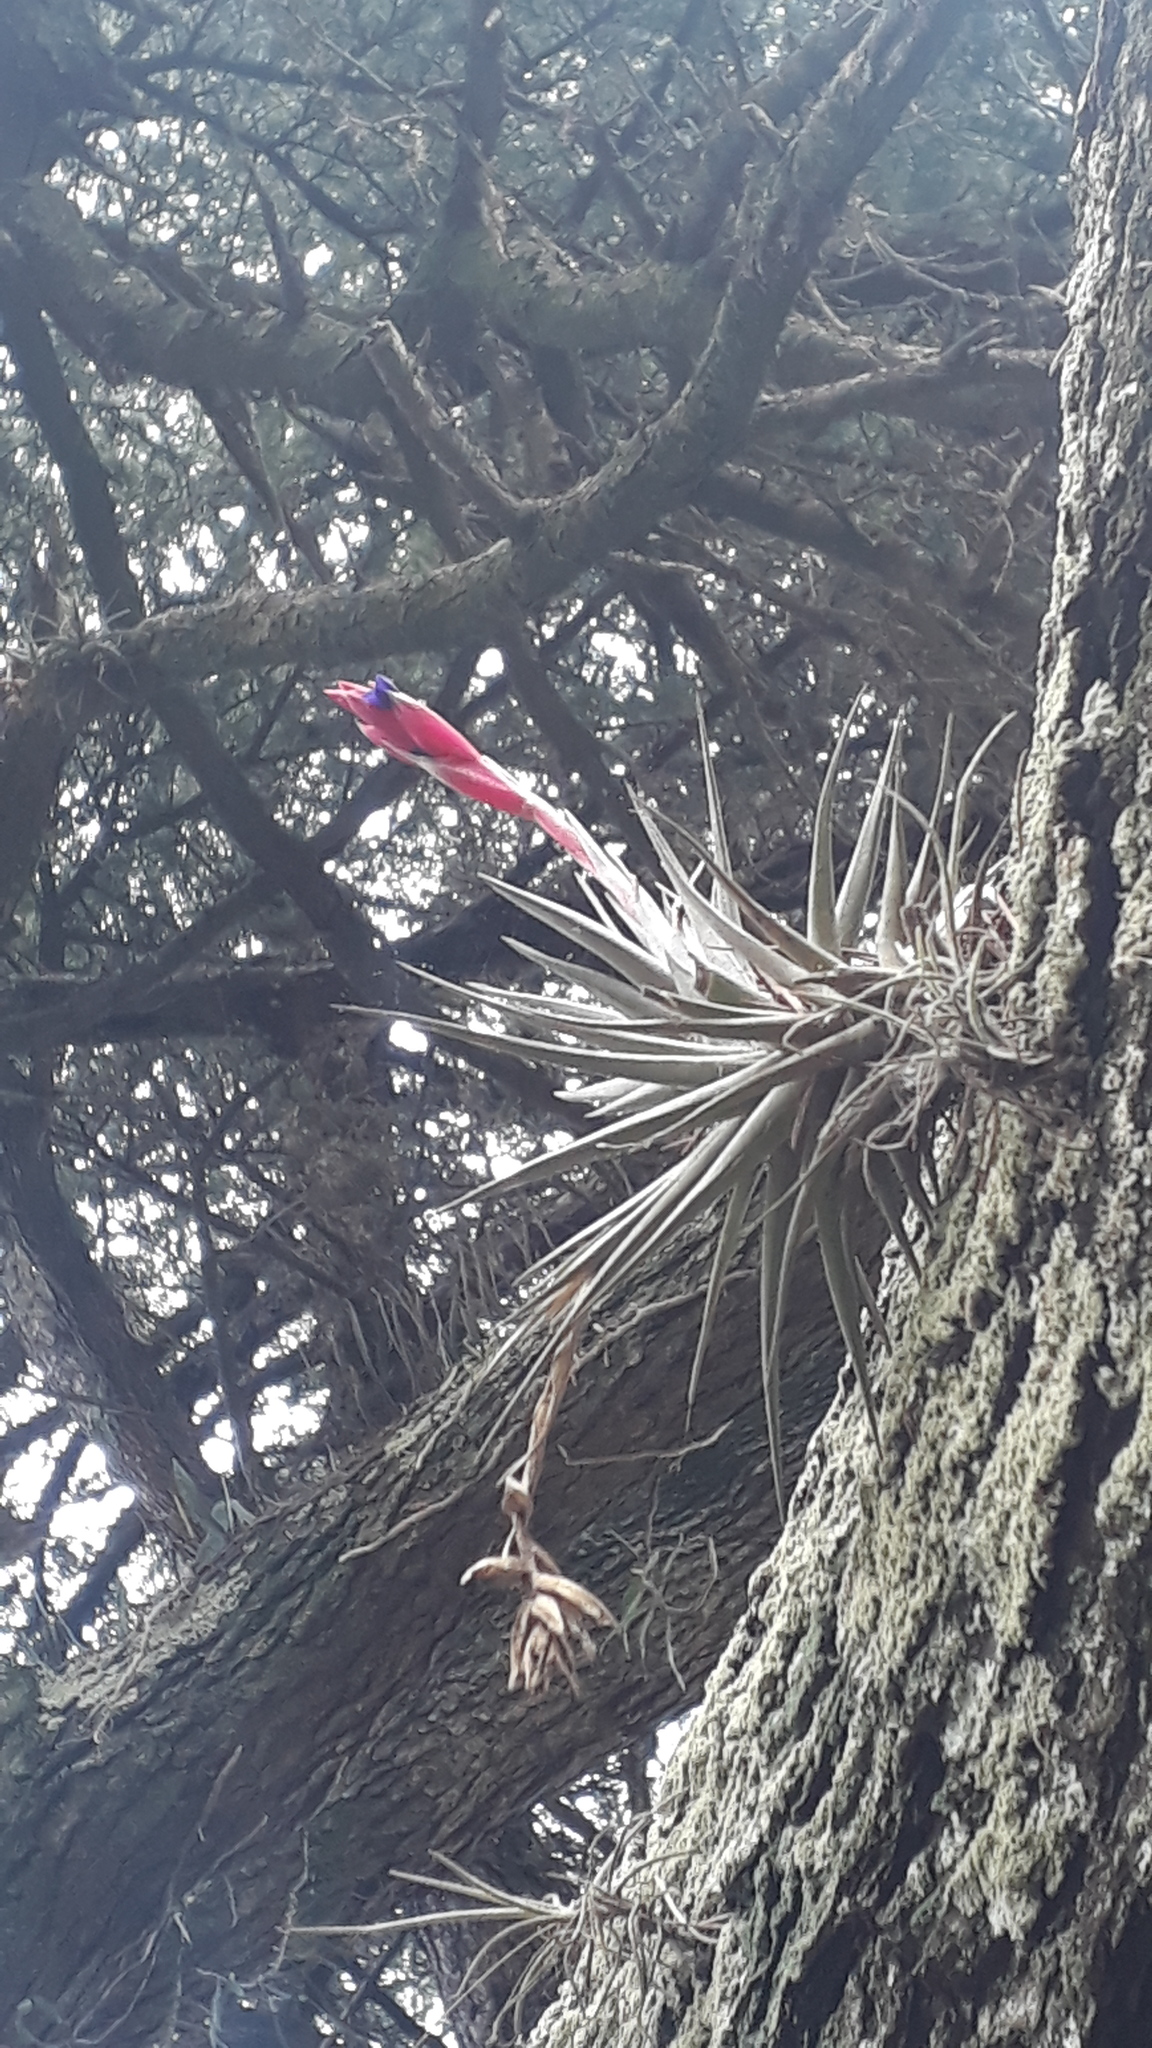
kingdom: Plantae
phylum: Tracheophyta
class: Liliopsida
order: Poales
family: Bromeliaceae
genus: Tillandsia
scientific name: Tillandsia aeranthos
